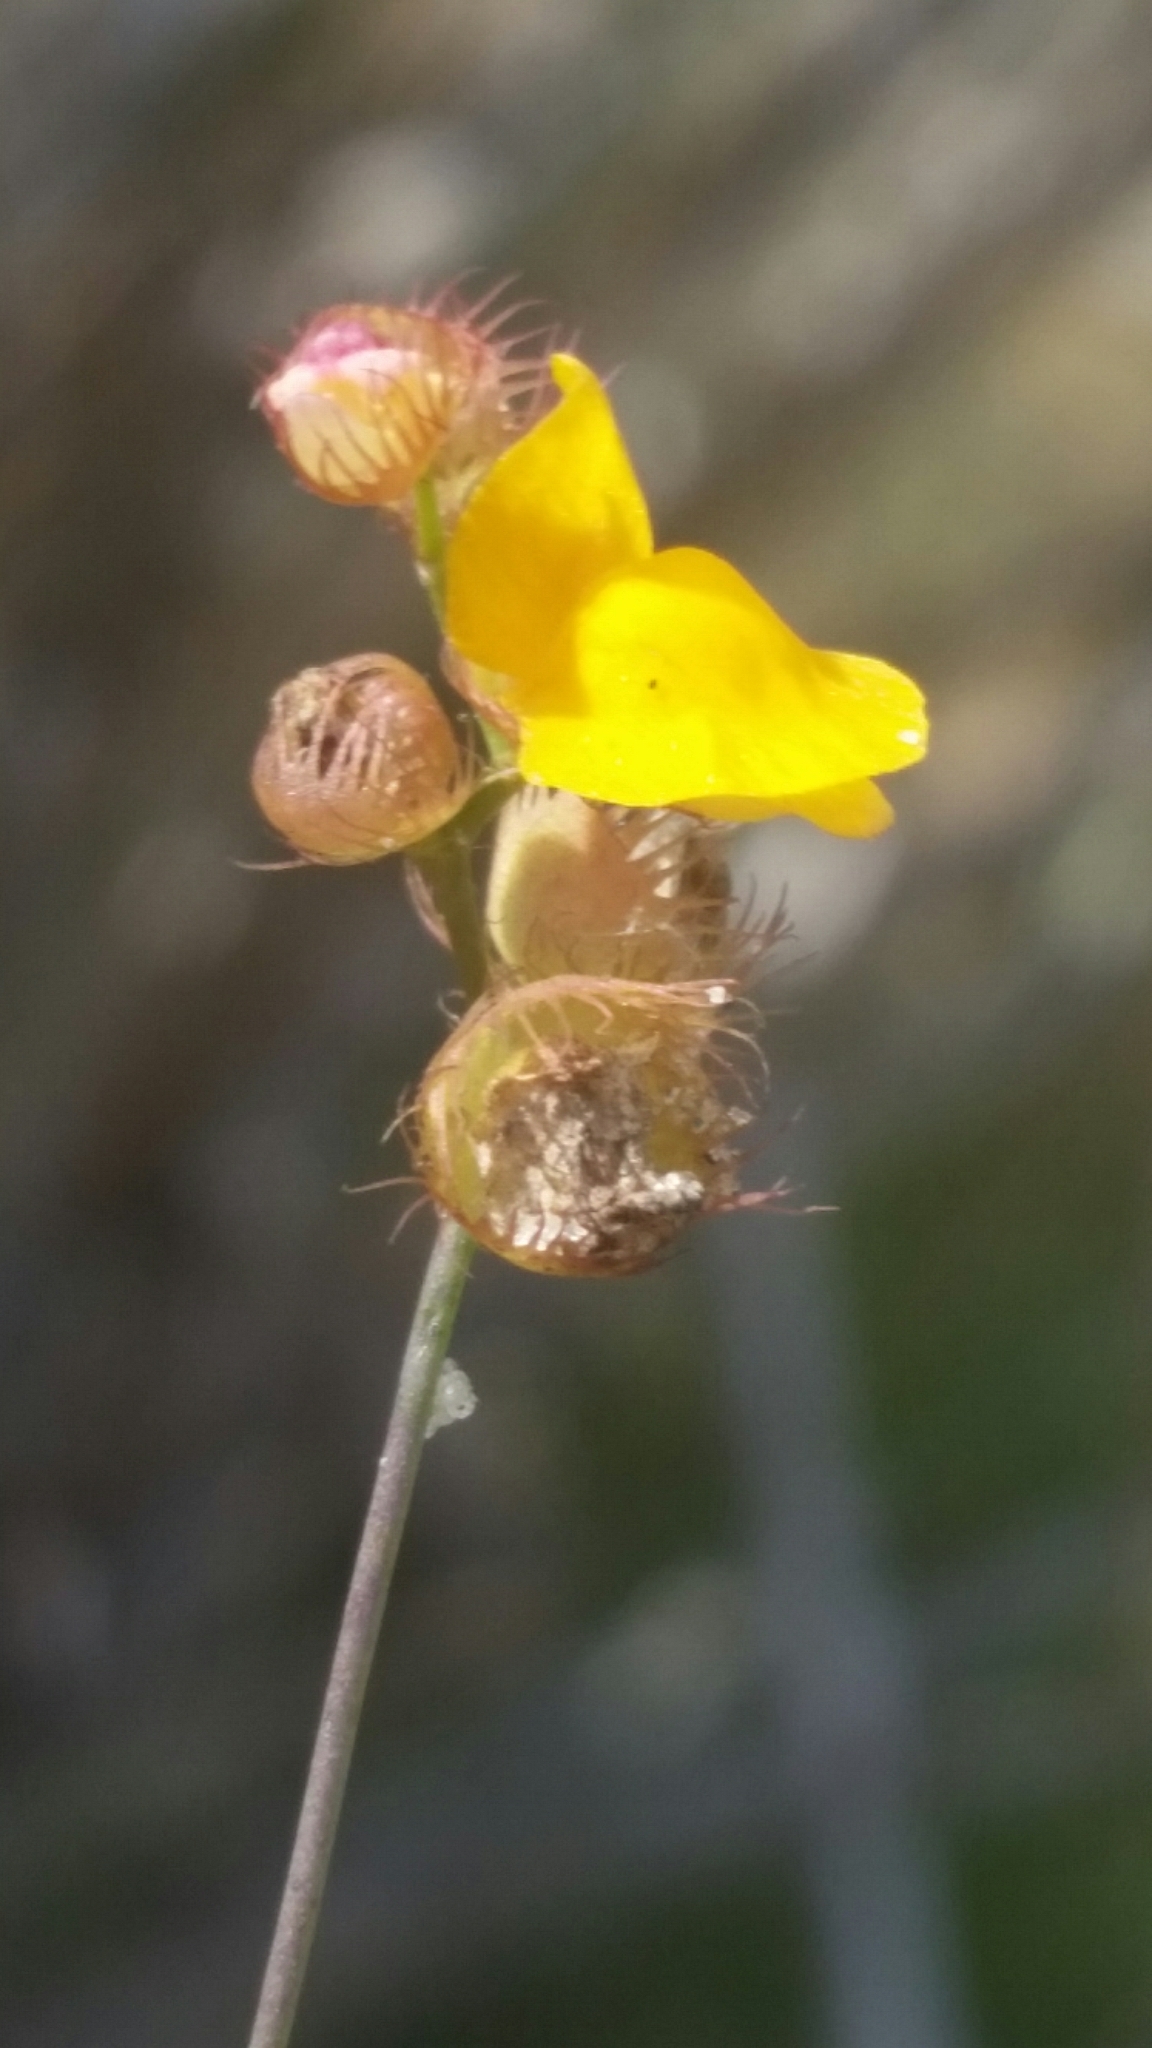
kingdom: Plantae
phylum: Tracheophyta
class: Magnoliopsida
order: Lamiales
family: Lentibulariaceae
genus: Utricularia
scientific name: Utricularia simulans
